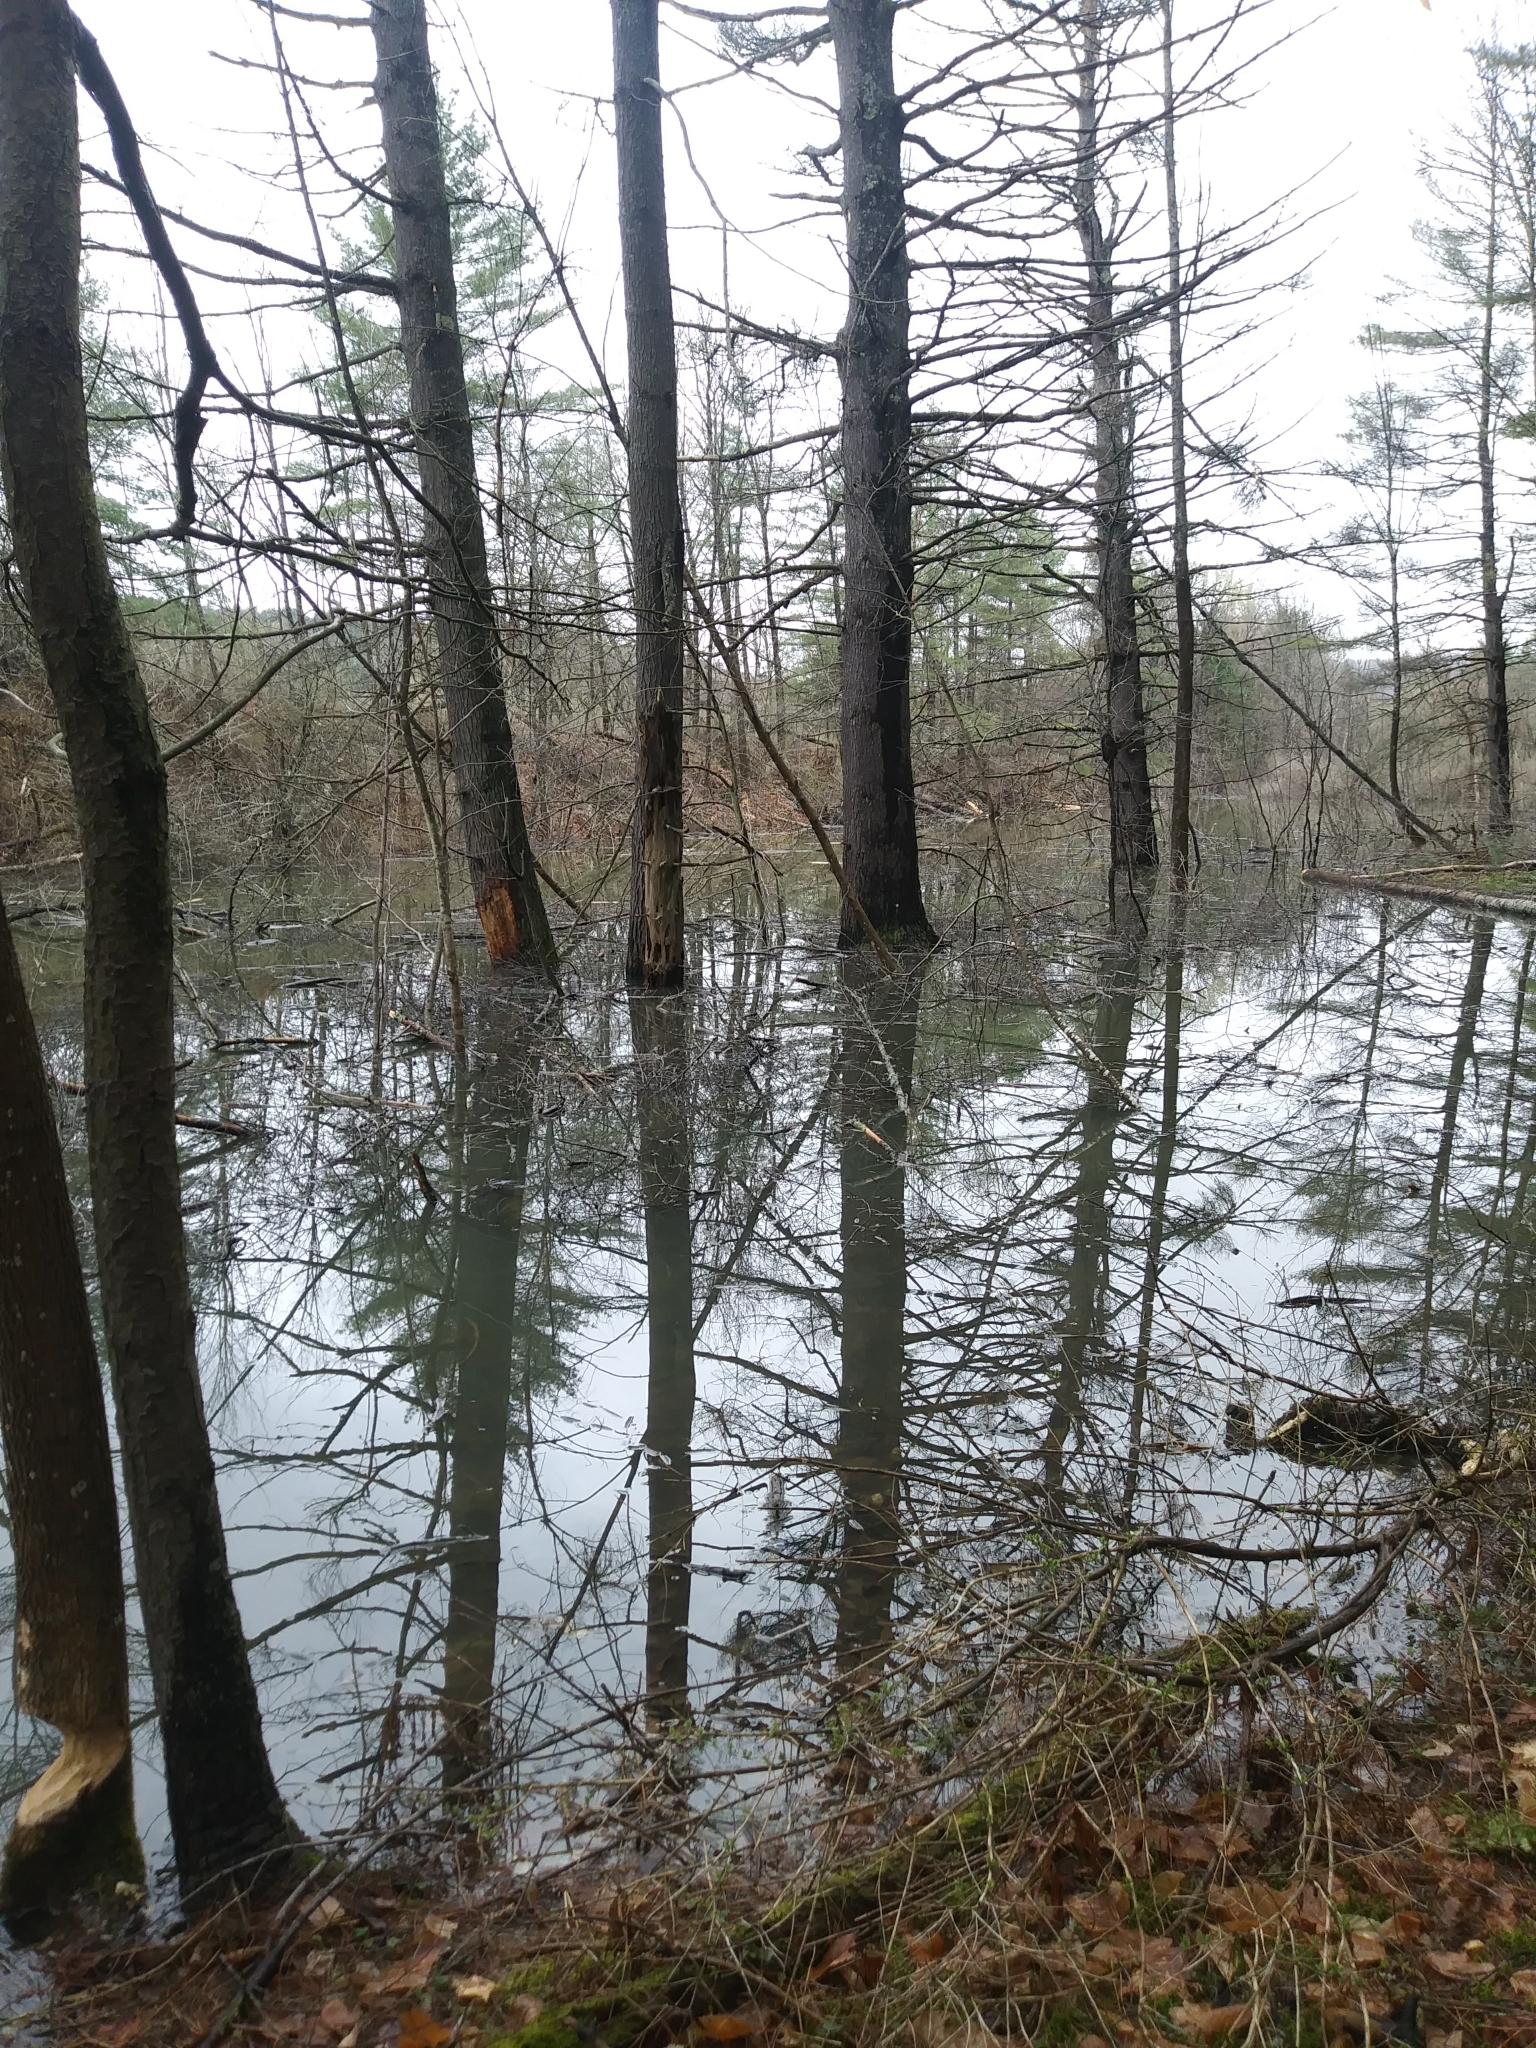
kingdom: Animalia
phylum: Chordata
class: Mammalia
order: Rodentia
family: Castoridae
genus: Castor
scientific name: Castor canadensis
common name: American beaver
